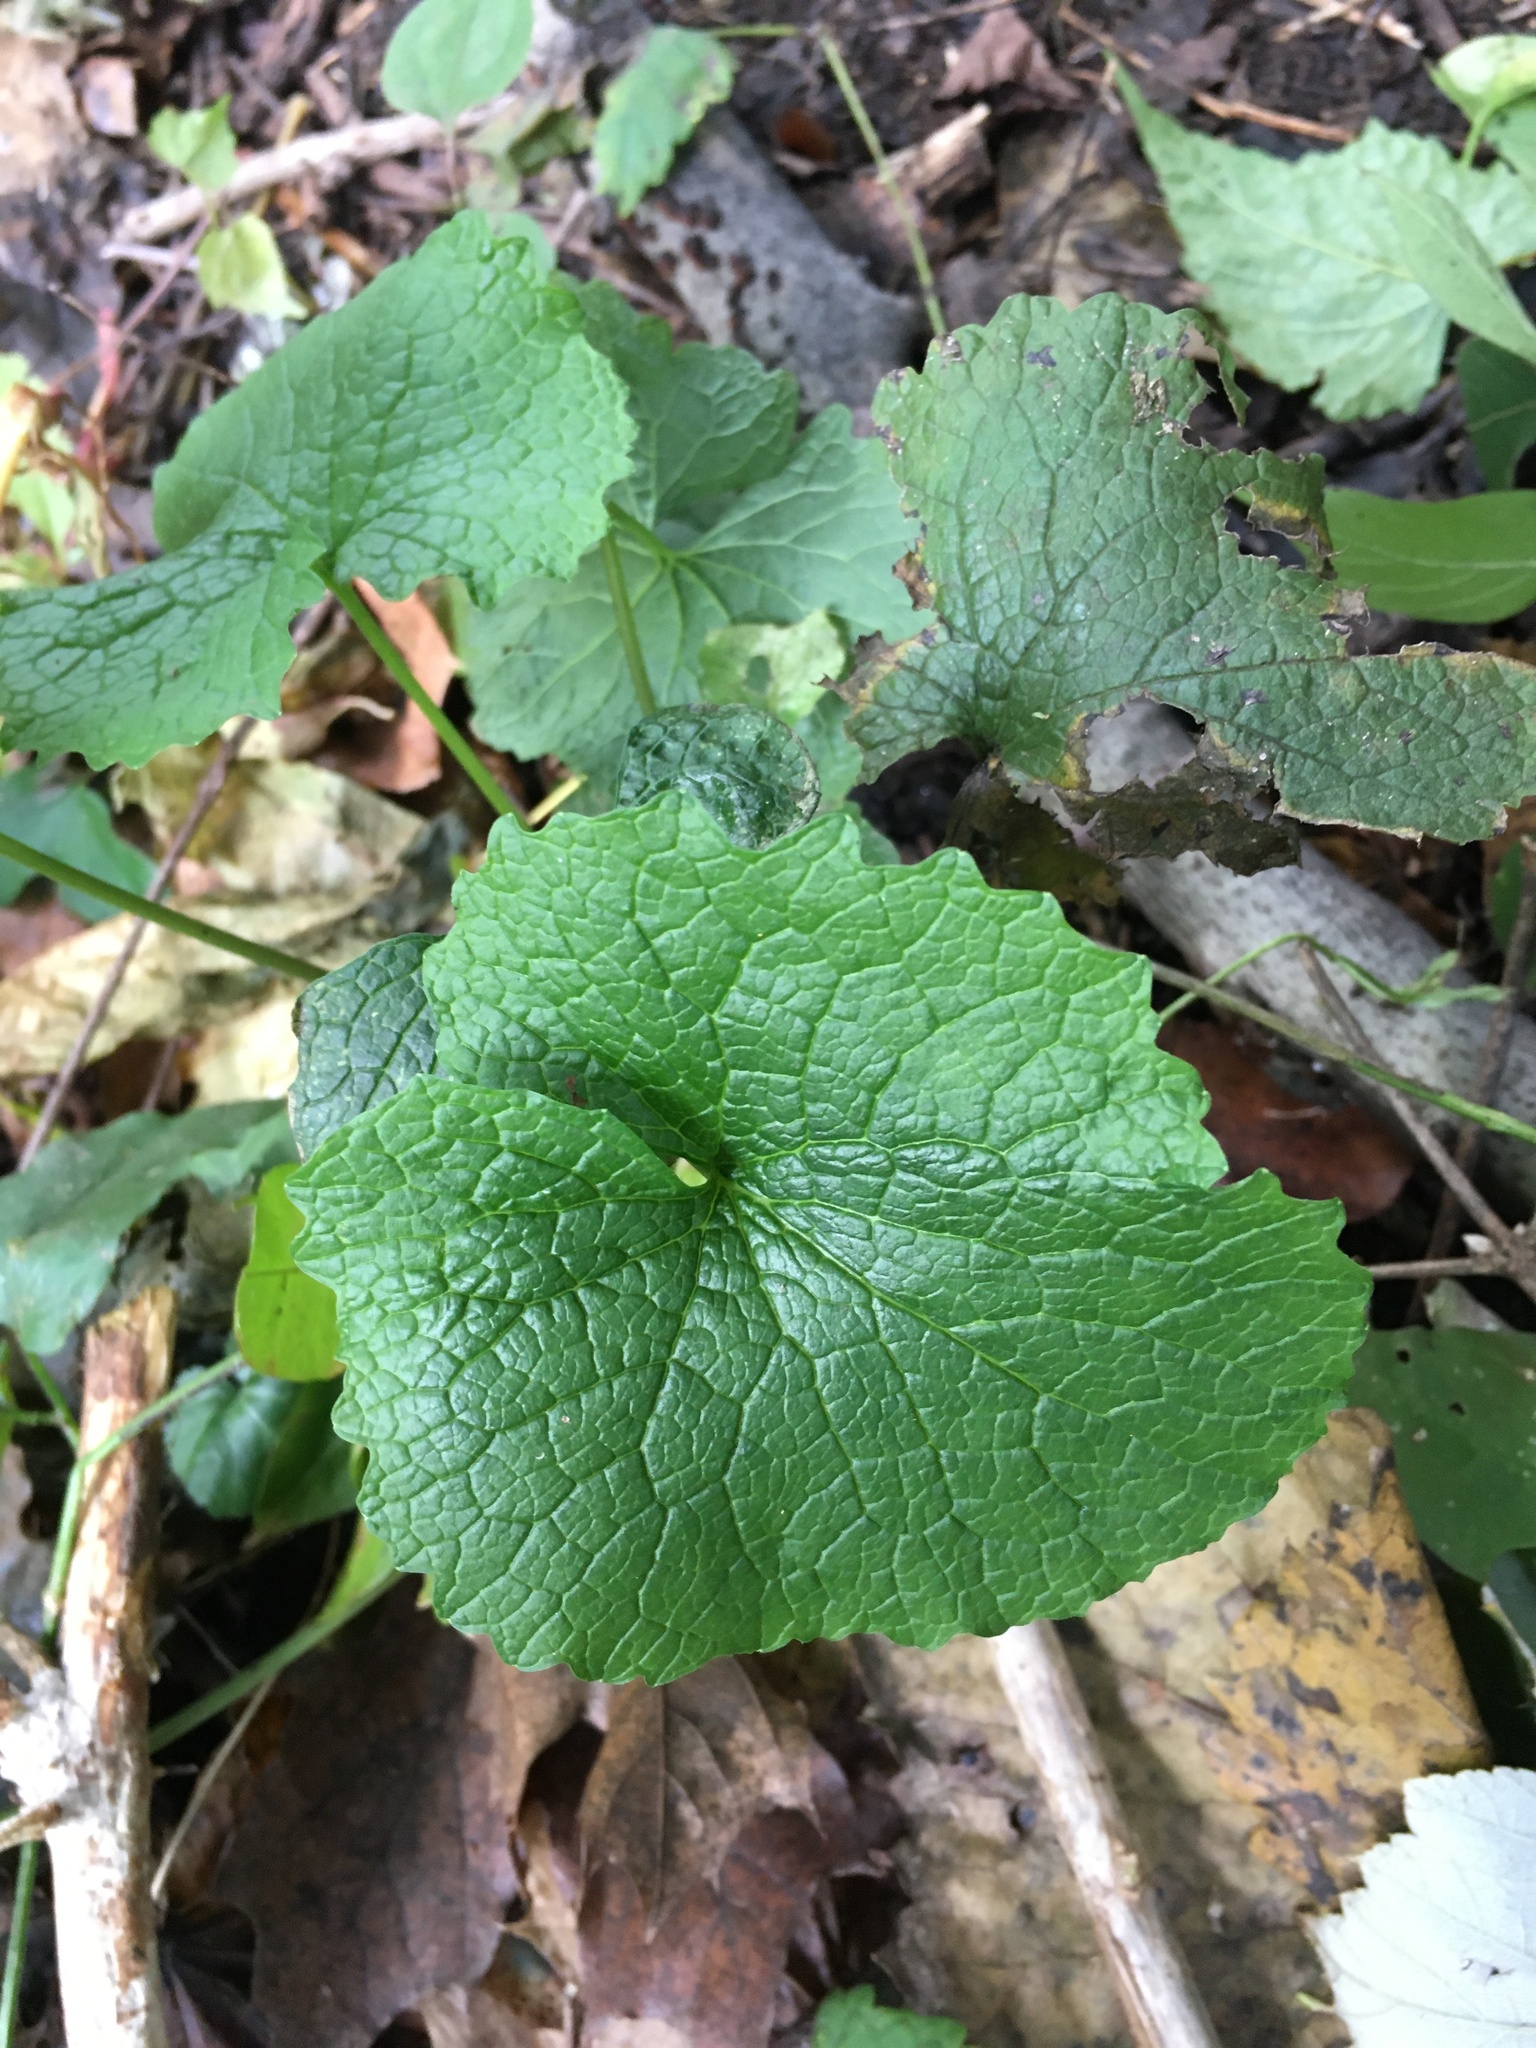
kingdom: Plantae
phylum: Tracheophyta
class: Magnoliopsida
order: Brassicales
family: Brassicaceae
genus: Alliaria
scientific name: Alliaria petiolata
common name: Garlic mustard
